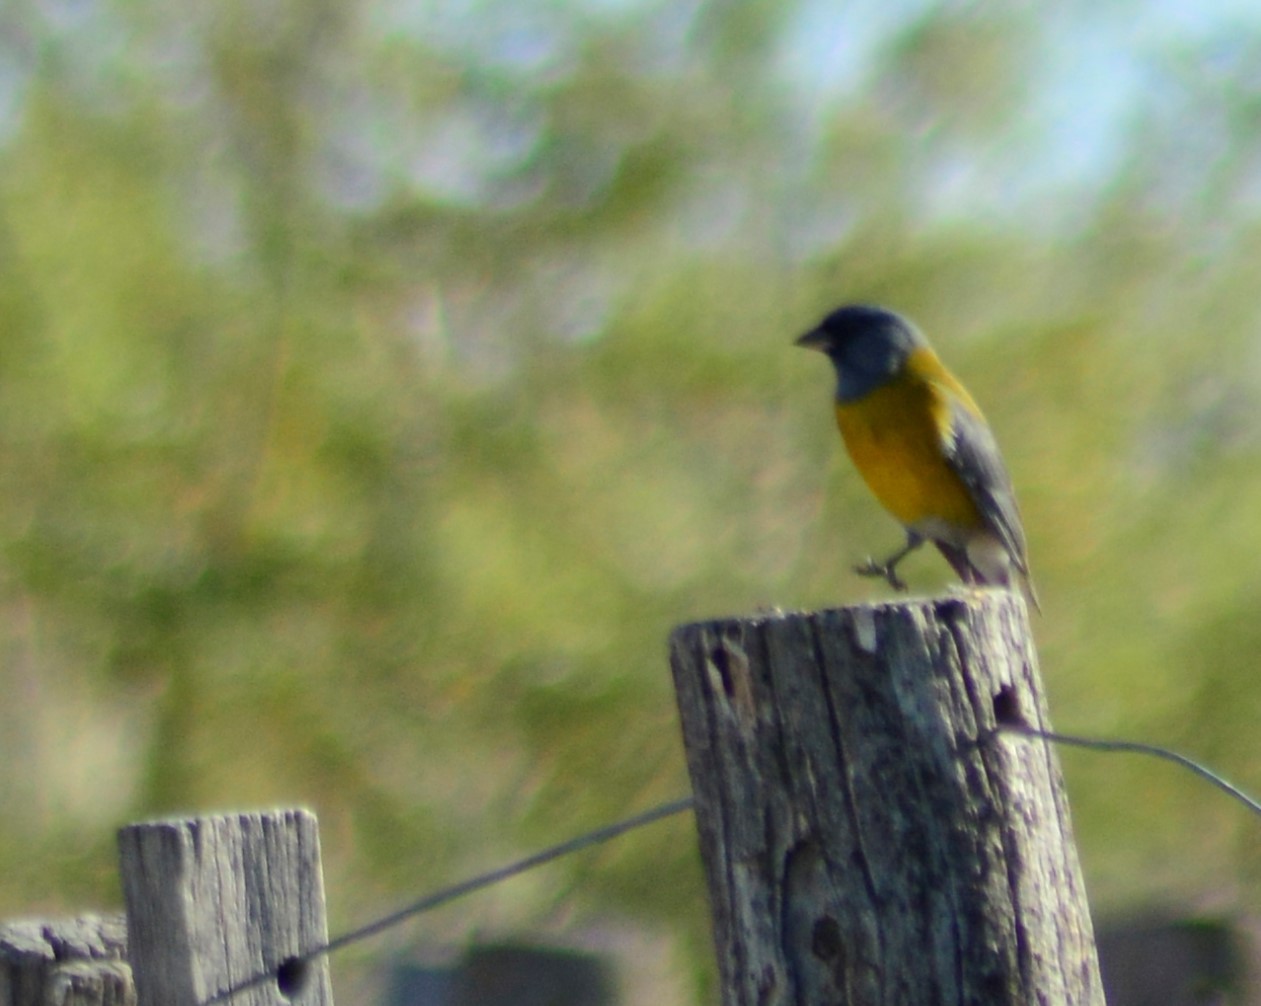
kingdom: Animalia
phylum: Chordata
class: Aves
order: Passeriformes
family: Thraupidae
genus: Phrygilus
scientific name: Phrygilus gayi
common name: Grey-hooded sierra finch
